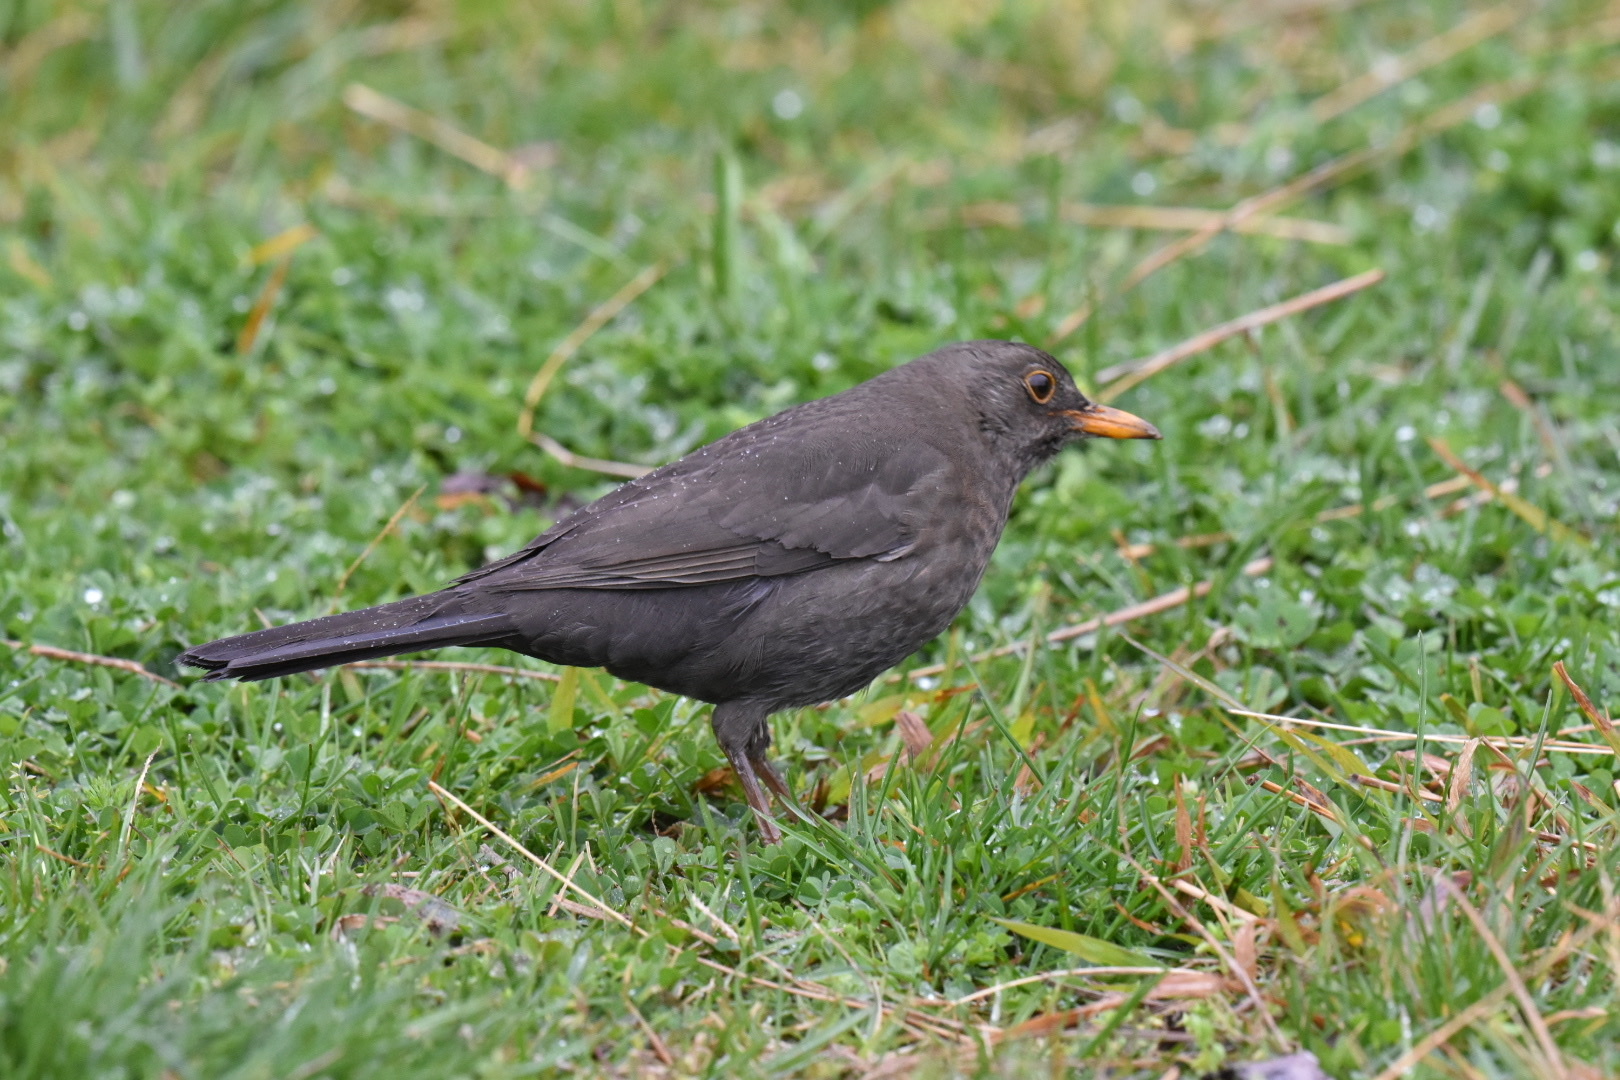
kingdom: Animalia
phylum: Chordata
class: Aves
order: Passeriformes
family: Turdidae
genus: Turdus
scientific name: Turdus merula
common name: Common blackbird
